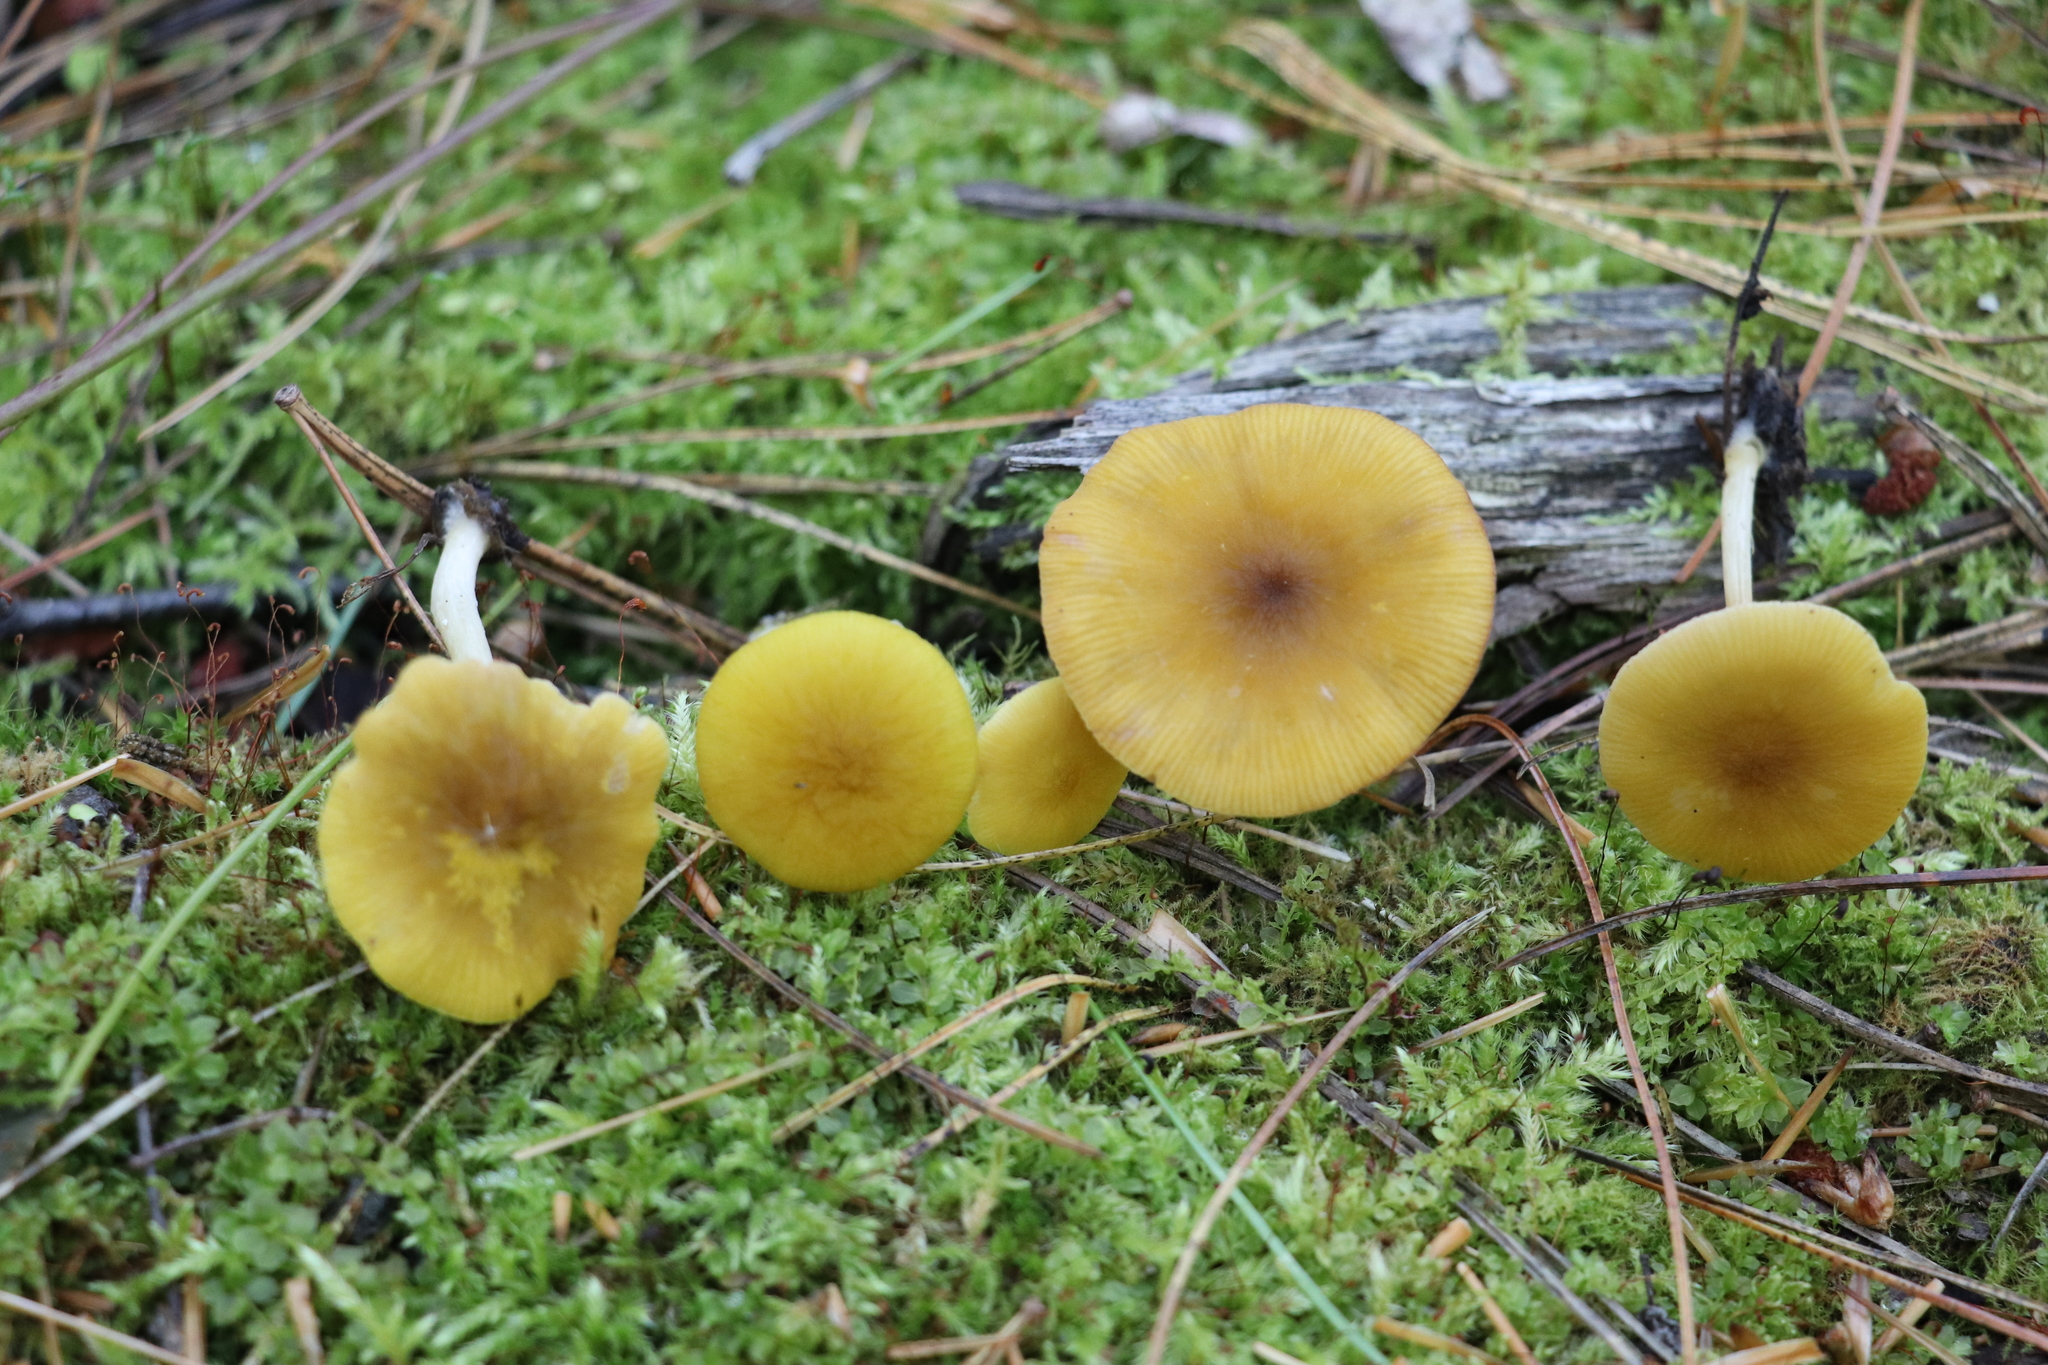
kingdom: Fungi
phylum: Basidiomycota
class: Agaricomycetes
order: Agaricales
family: Pluteaceae
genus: Pluteus
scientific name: Pluteus chrysophlebius
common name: Yellow deer mushroom
